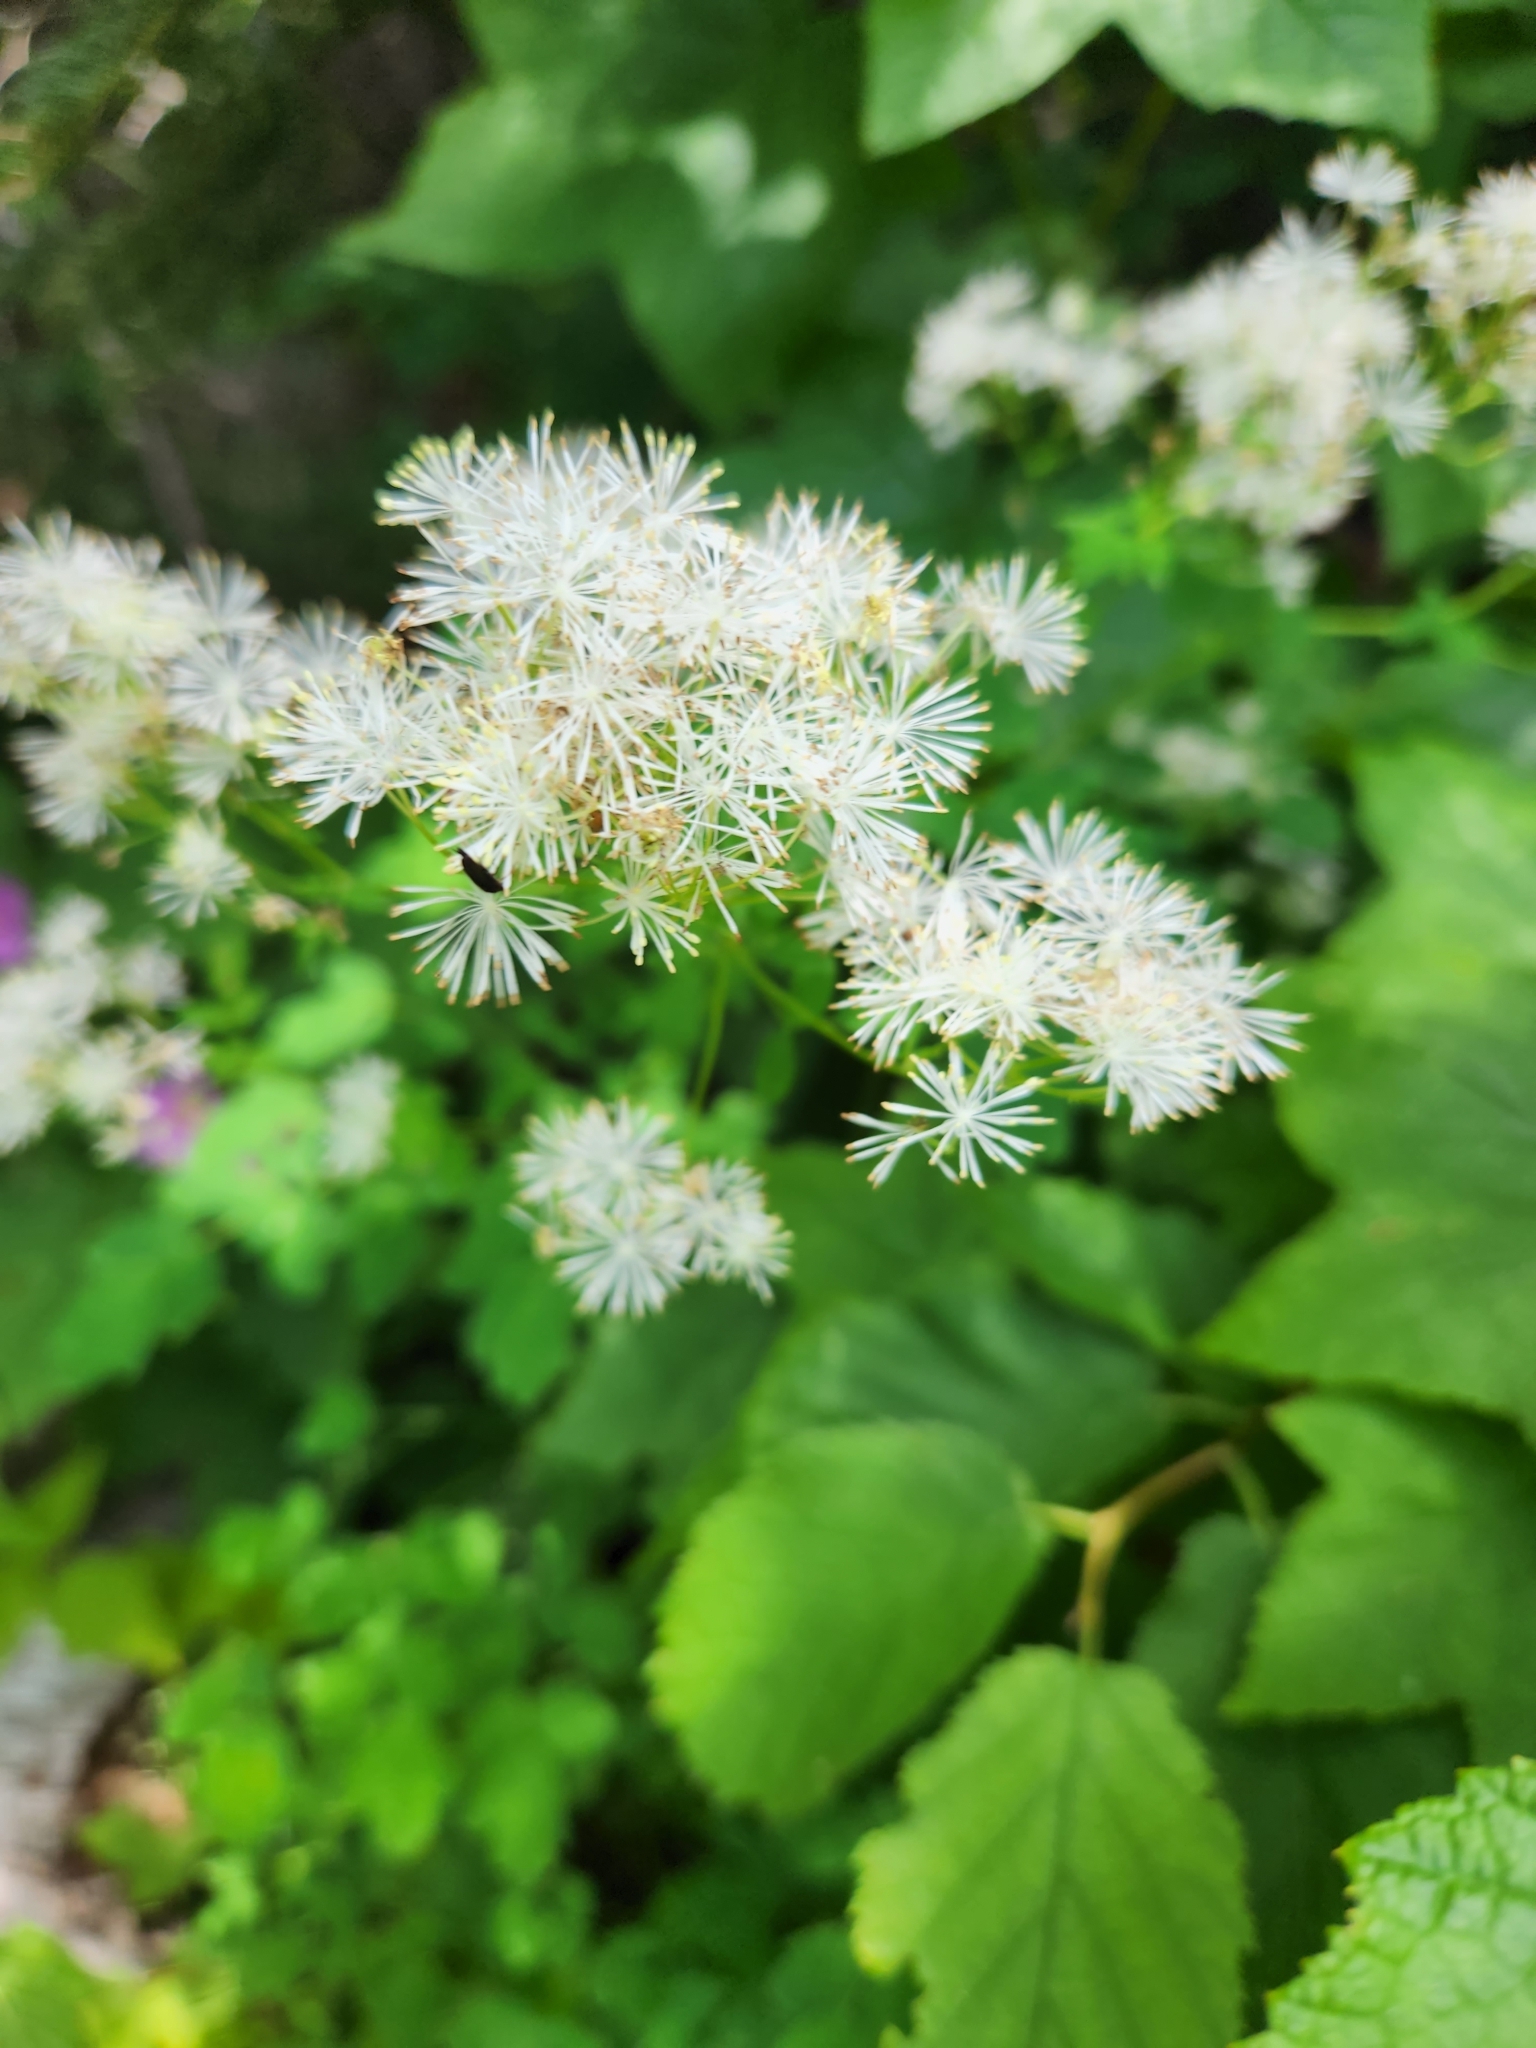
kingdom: Plantae
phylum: Tracheophyta
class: Magnoliopsida
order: Ranunculales
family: Ranunculaceae
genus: Thalictrum
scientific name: Thalictrum pubescens
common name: King-of-the-meadow
